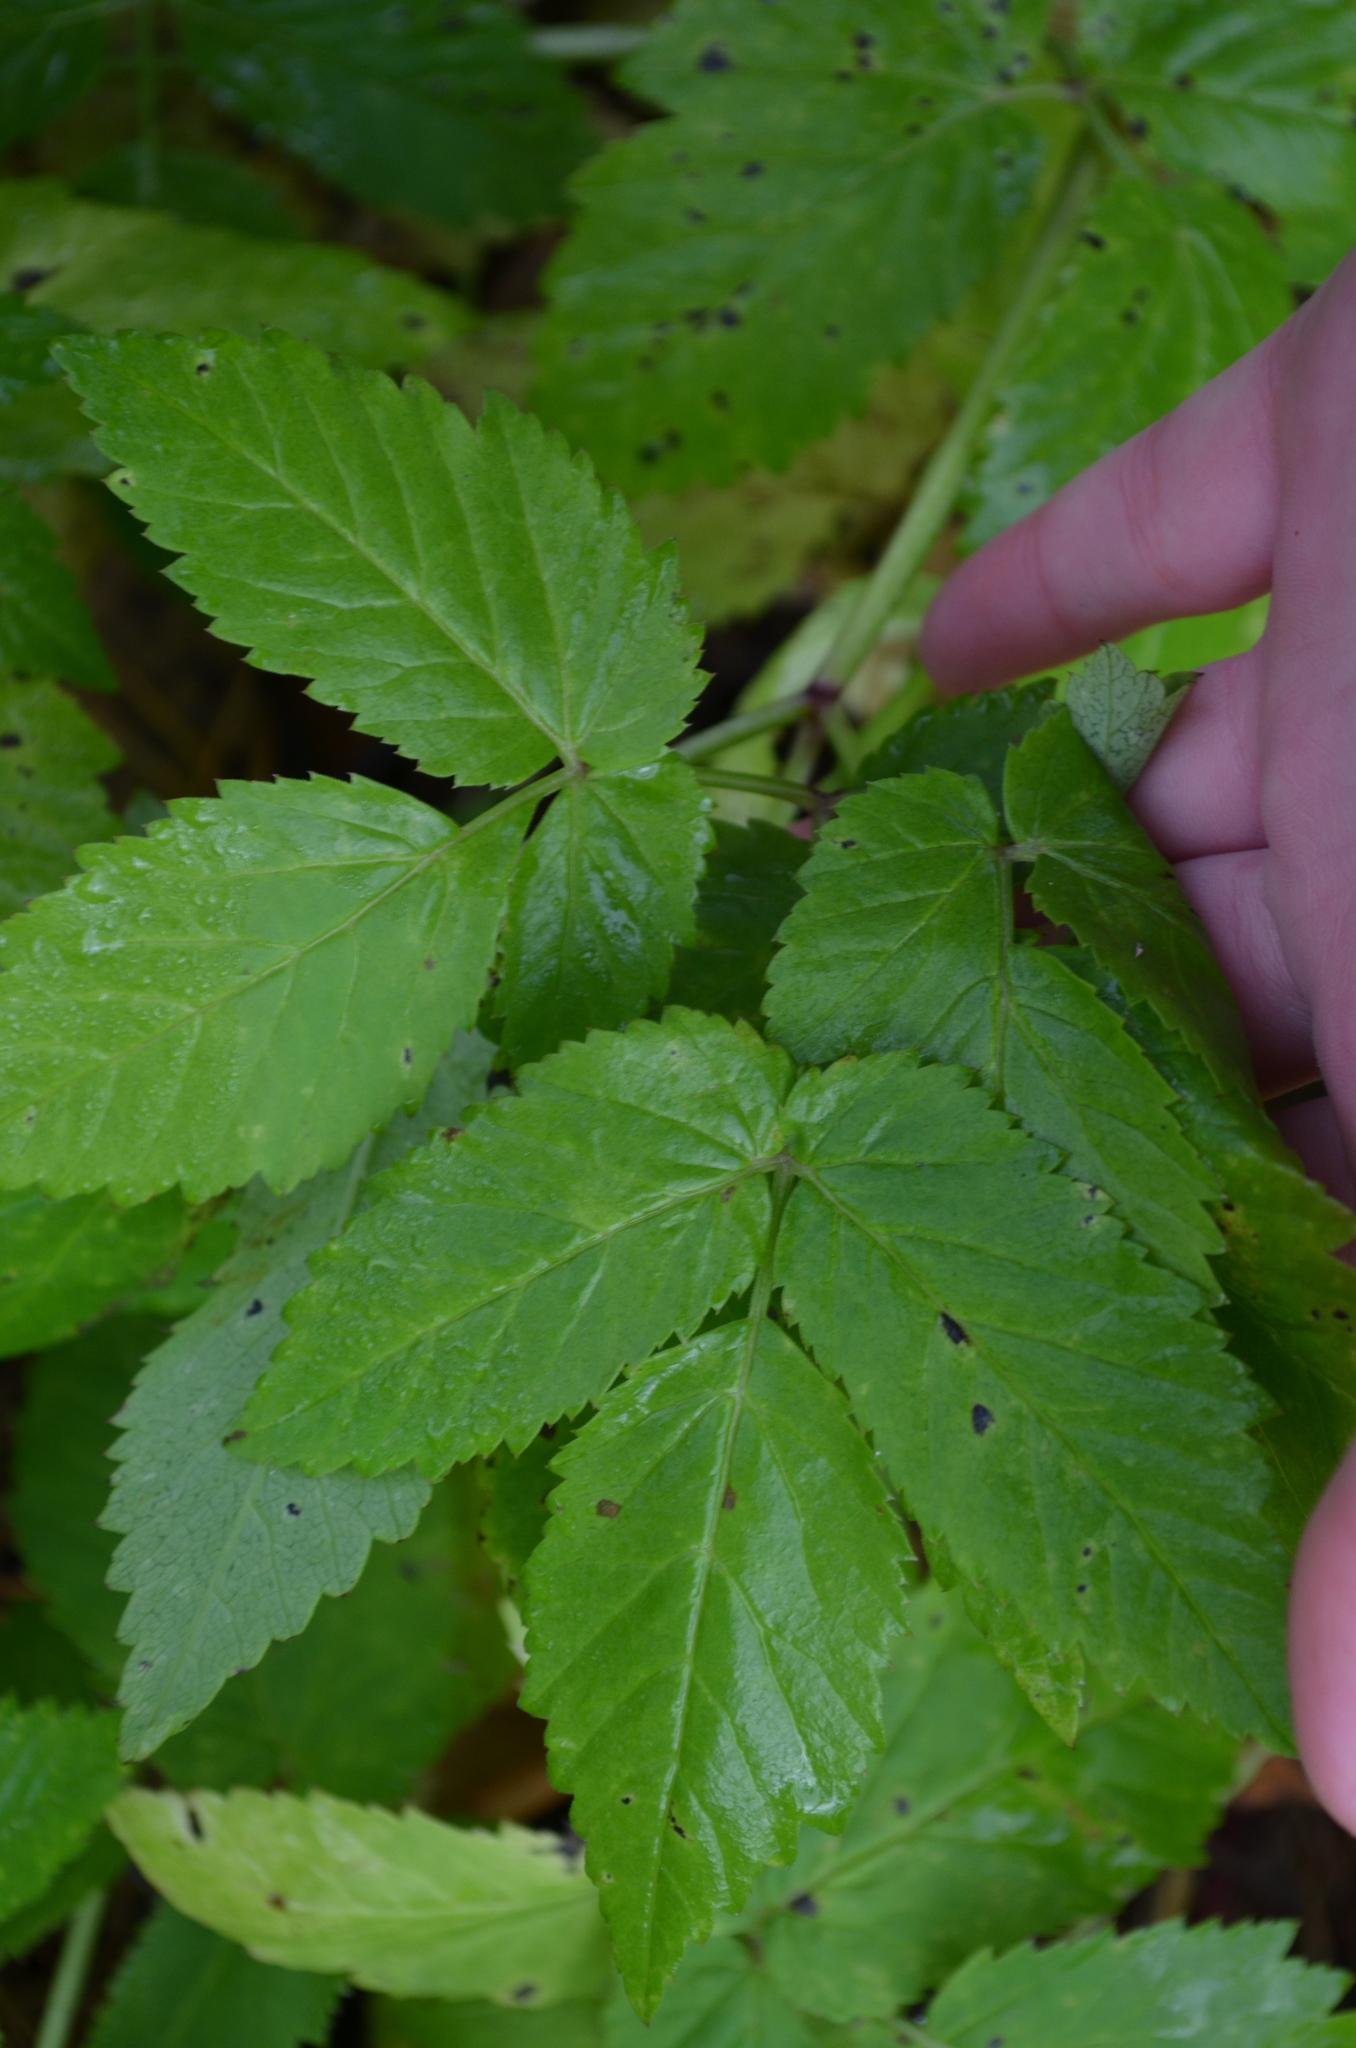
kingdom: Plantae
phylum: Tracheophyta
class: Magnoliopsida
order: Apiales
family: Apiaceae
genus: Aegopodium
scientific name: Aegopodium podagraria
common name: Ground-elder
